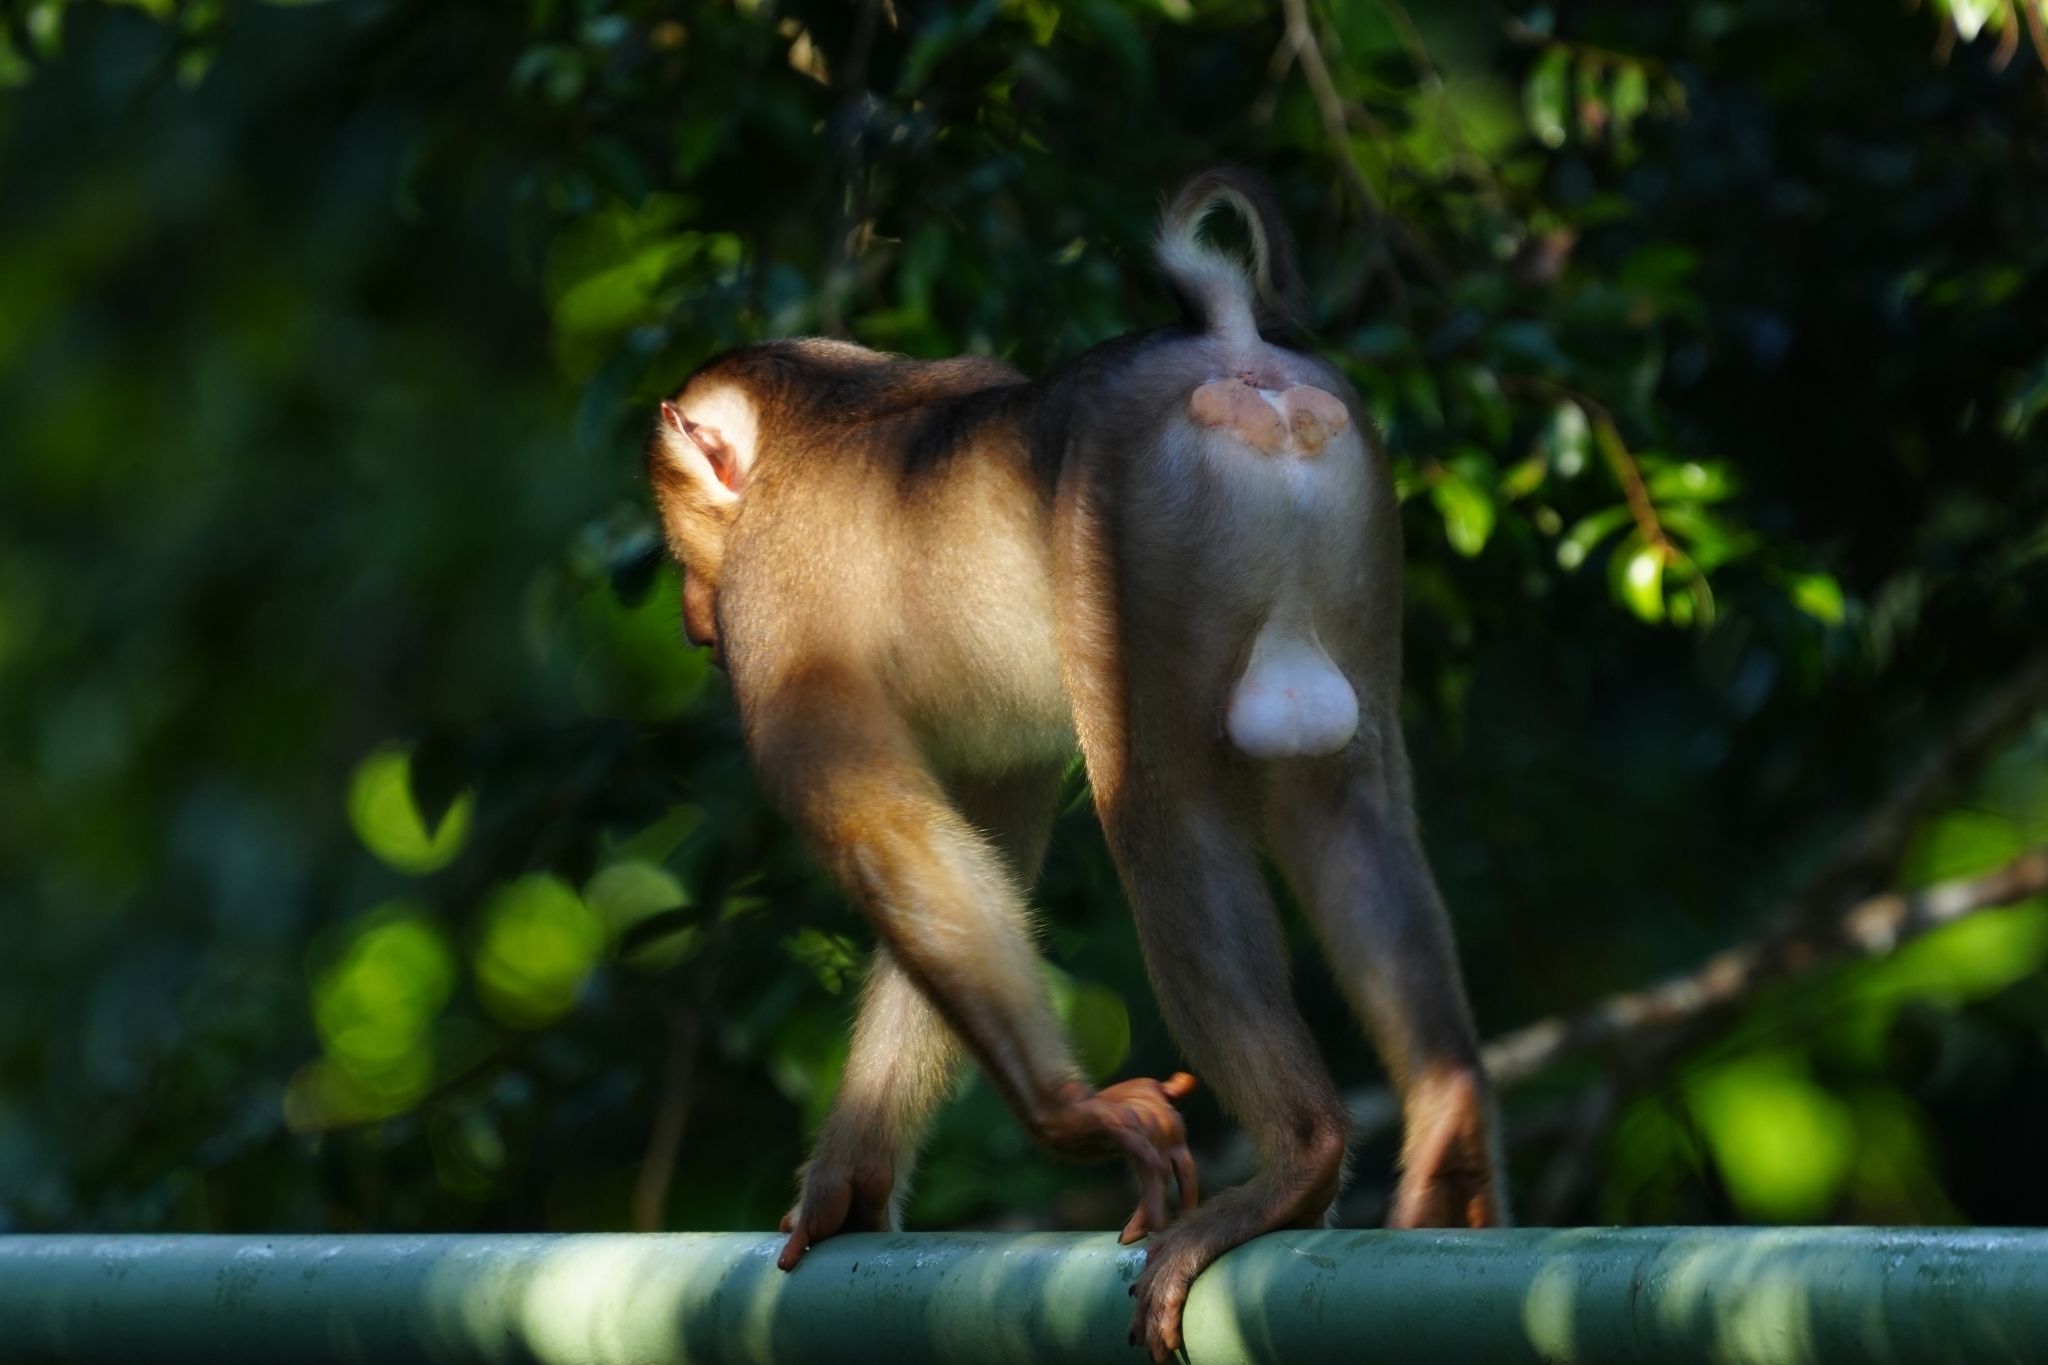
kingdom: Animalia
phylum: Chordata
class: Mammalia
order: Primates
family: Cercopithecidae
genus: Macaca
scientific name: Macaca nemestrina
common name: Southern pig-tailed macaque
